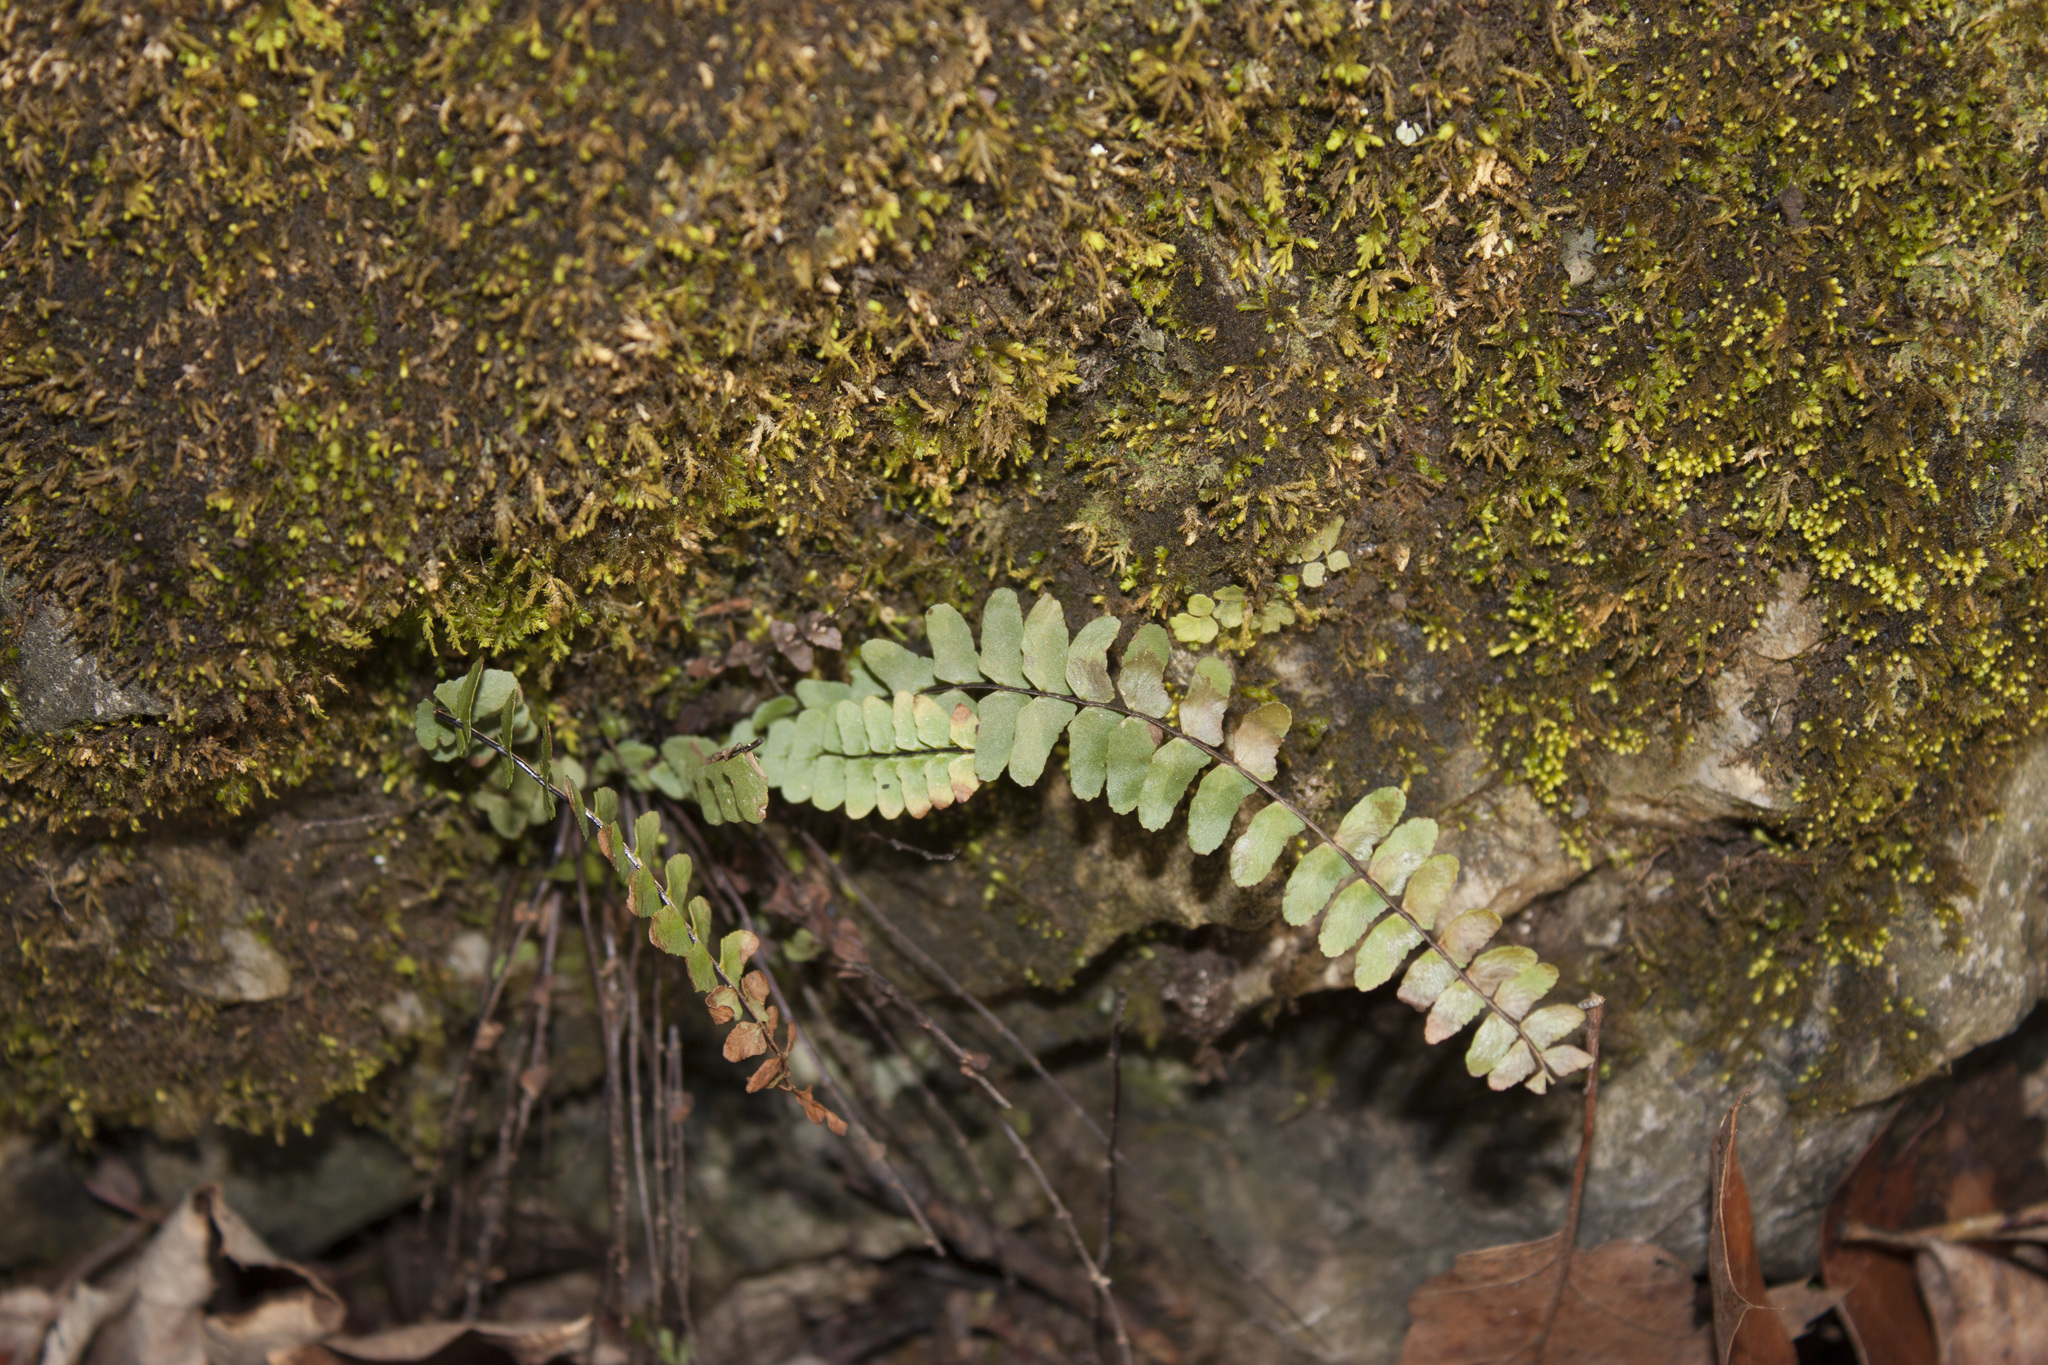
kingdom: Plantae
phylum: Tracheophyta
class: Polypodiopsida
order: Polypodiales
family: Aspleniaceae
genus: Asplenium
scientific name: Asplenium resiliens
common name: Blackstem spleenwort
